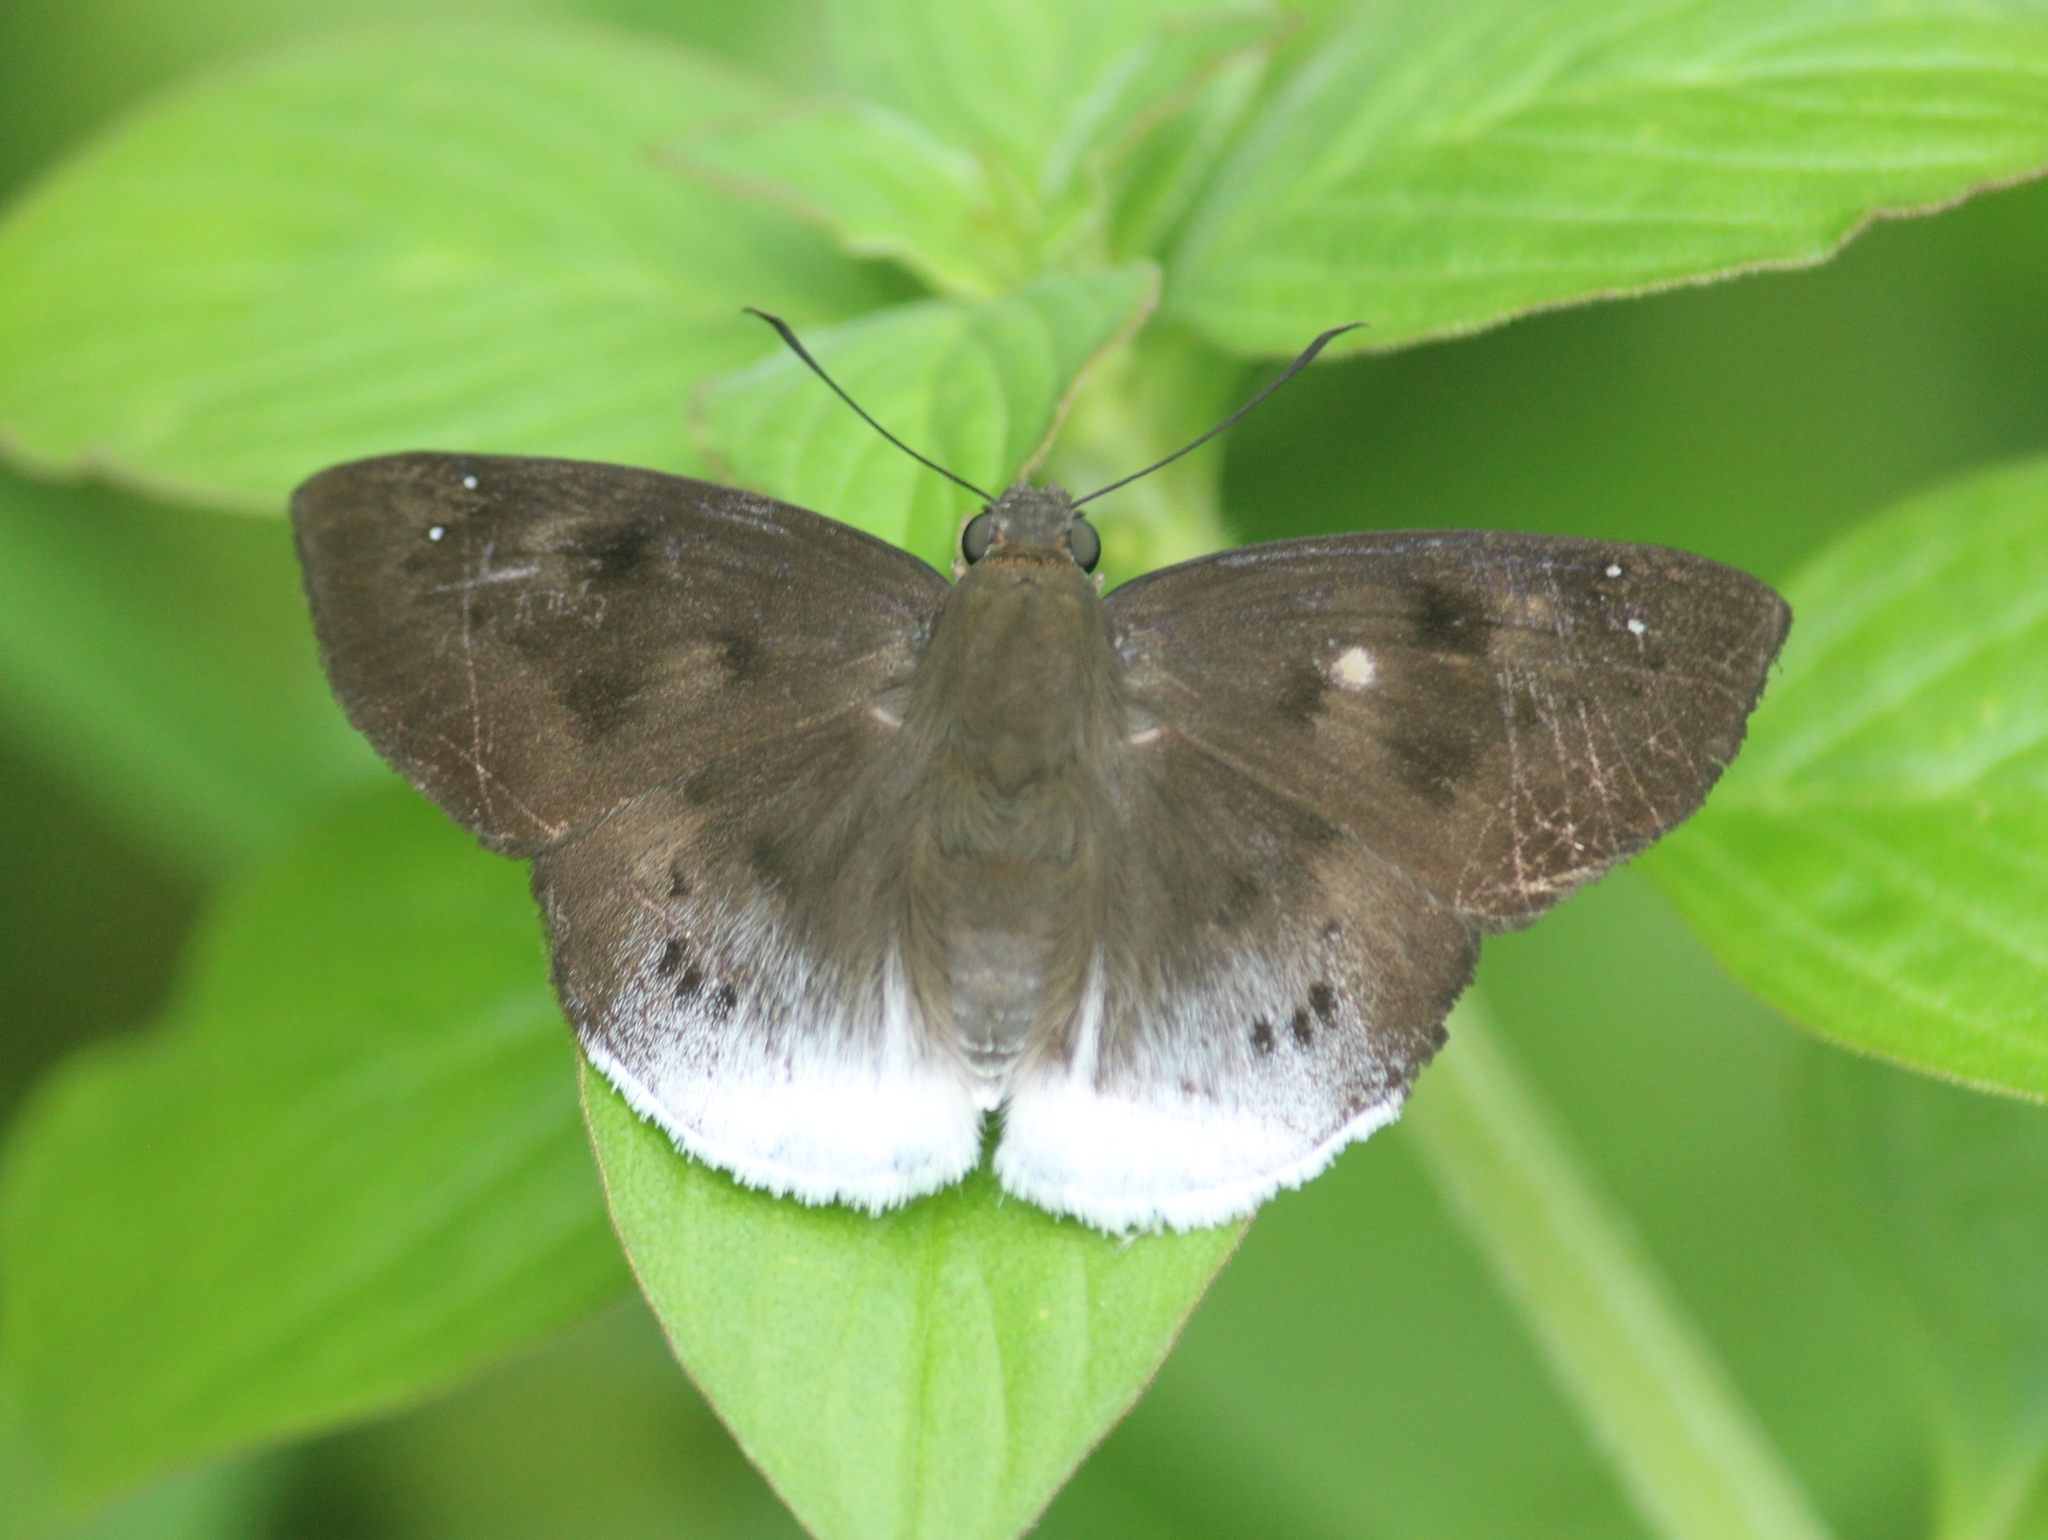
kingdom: Animalia
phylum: Arthropoda
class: Insecta
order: Lepidoptera
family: Hesperiidae
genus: Tagiades
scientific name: Tagiades gana
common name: Suffused snow flat
